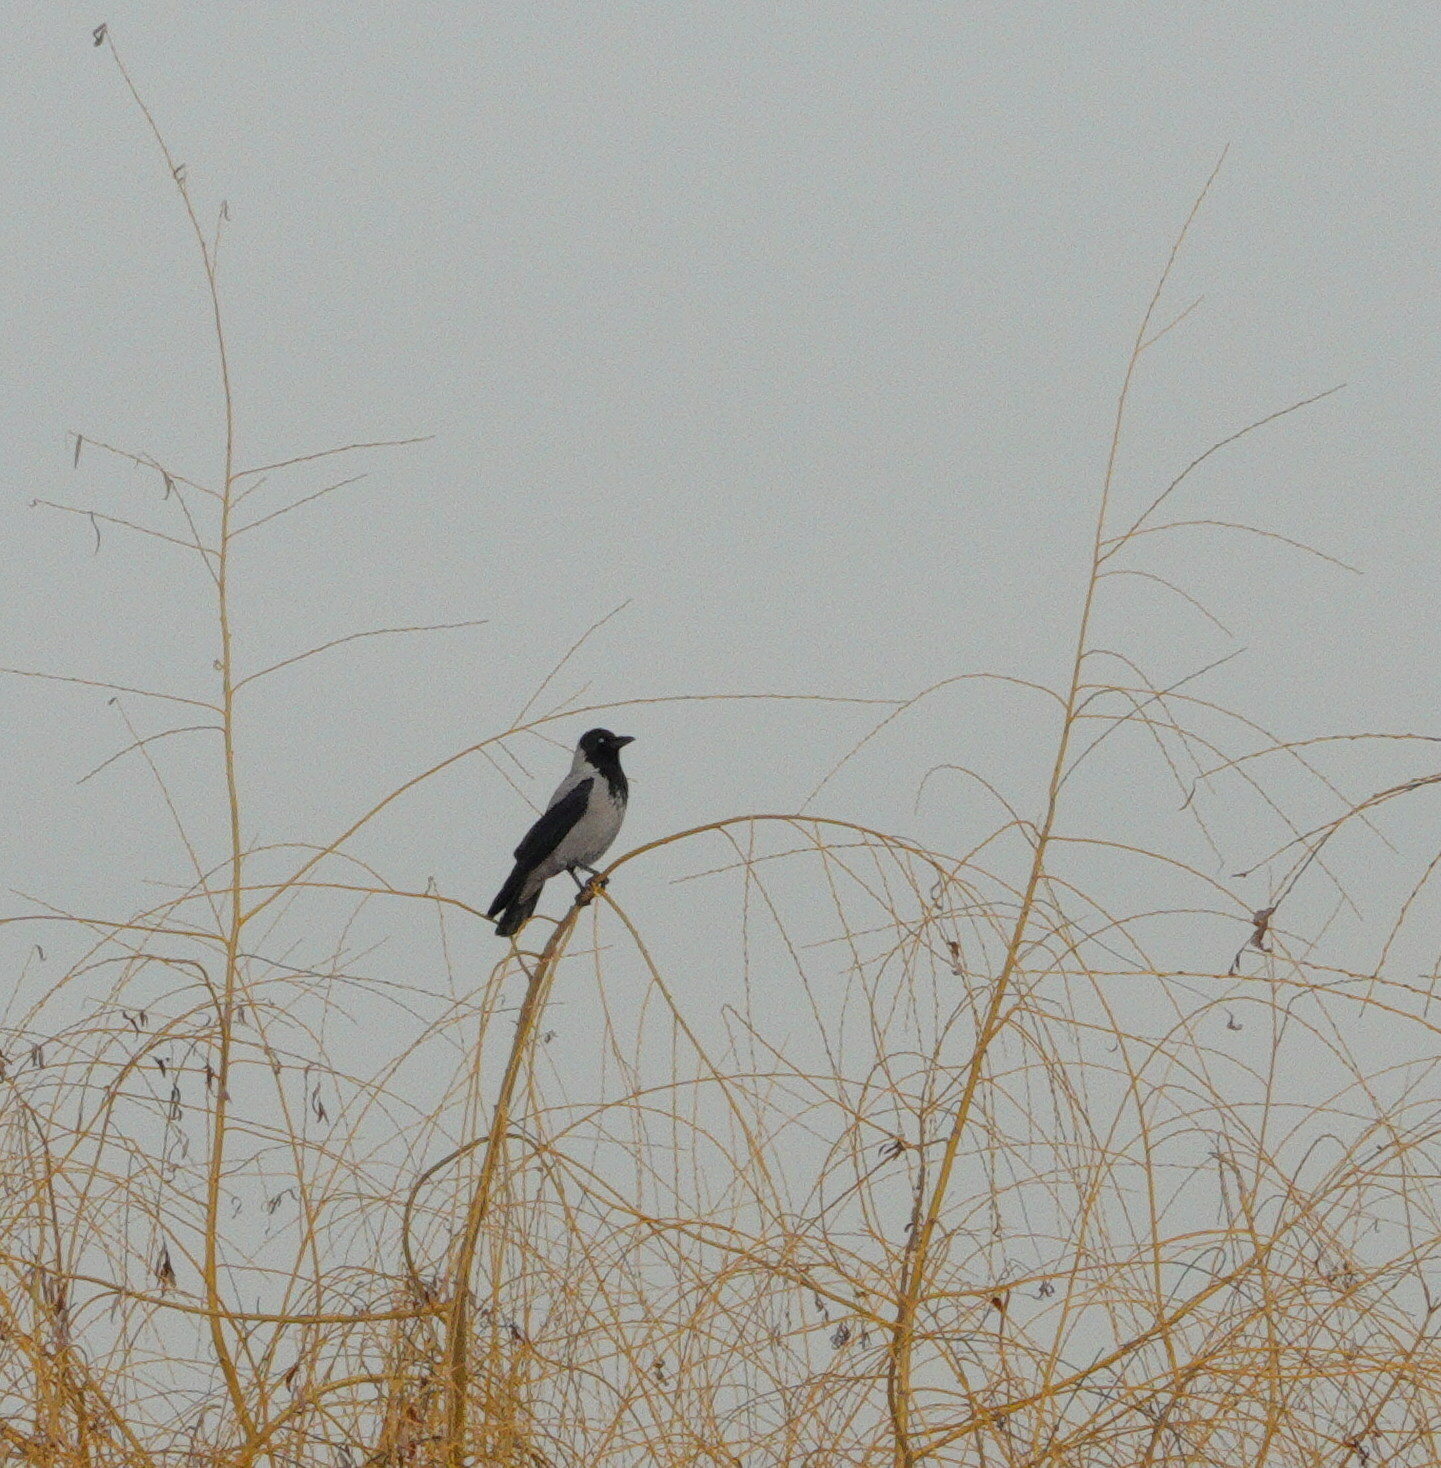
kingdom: Animalia
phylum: Chordata
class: Aves
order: Passeriformes
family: Corvidae
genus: Corvus
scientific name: Corvus cornix
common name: Hooded crow
